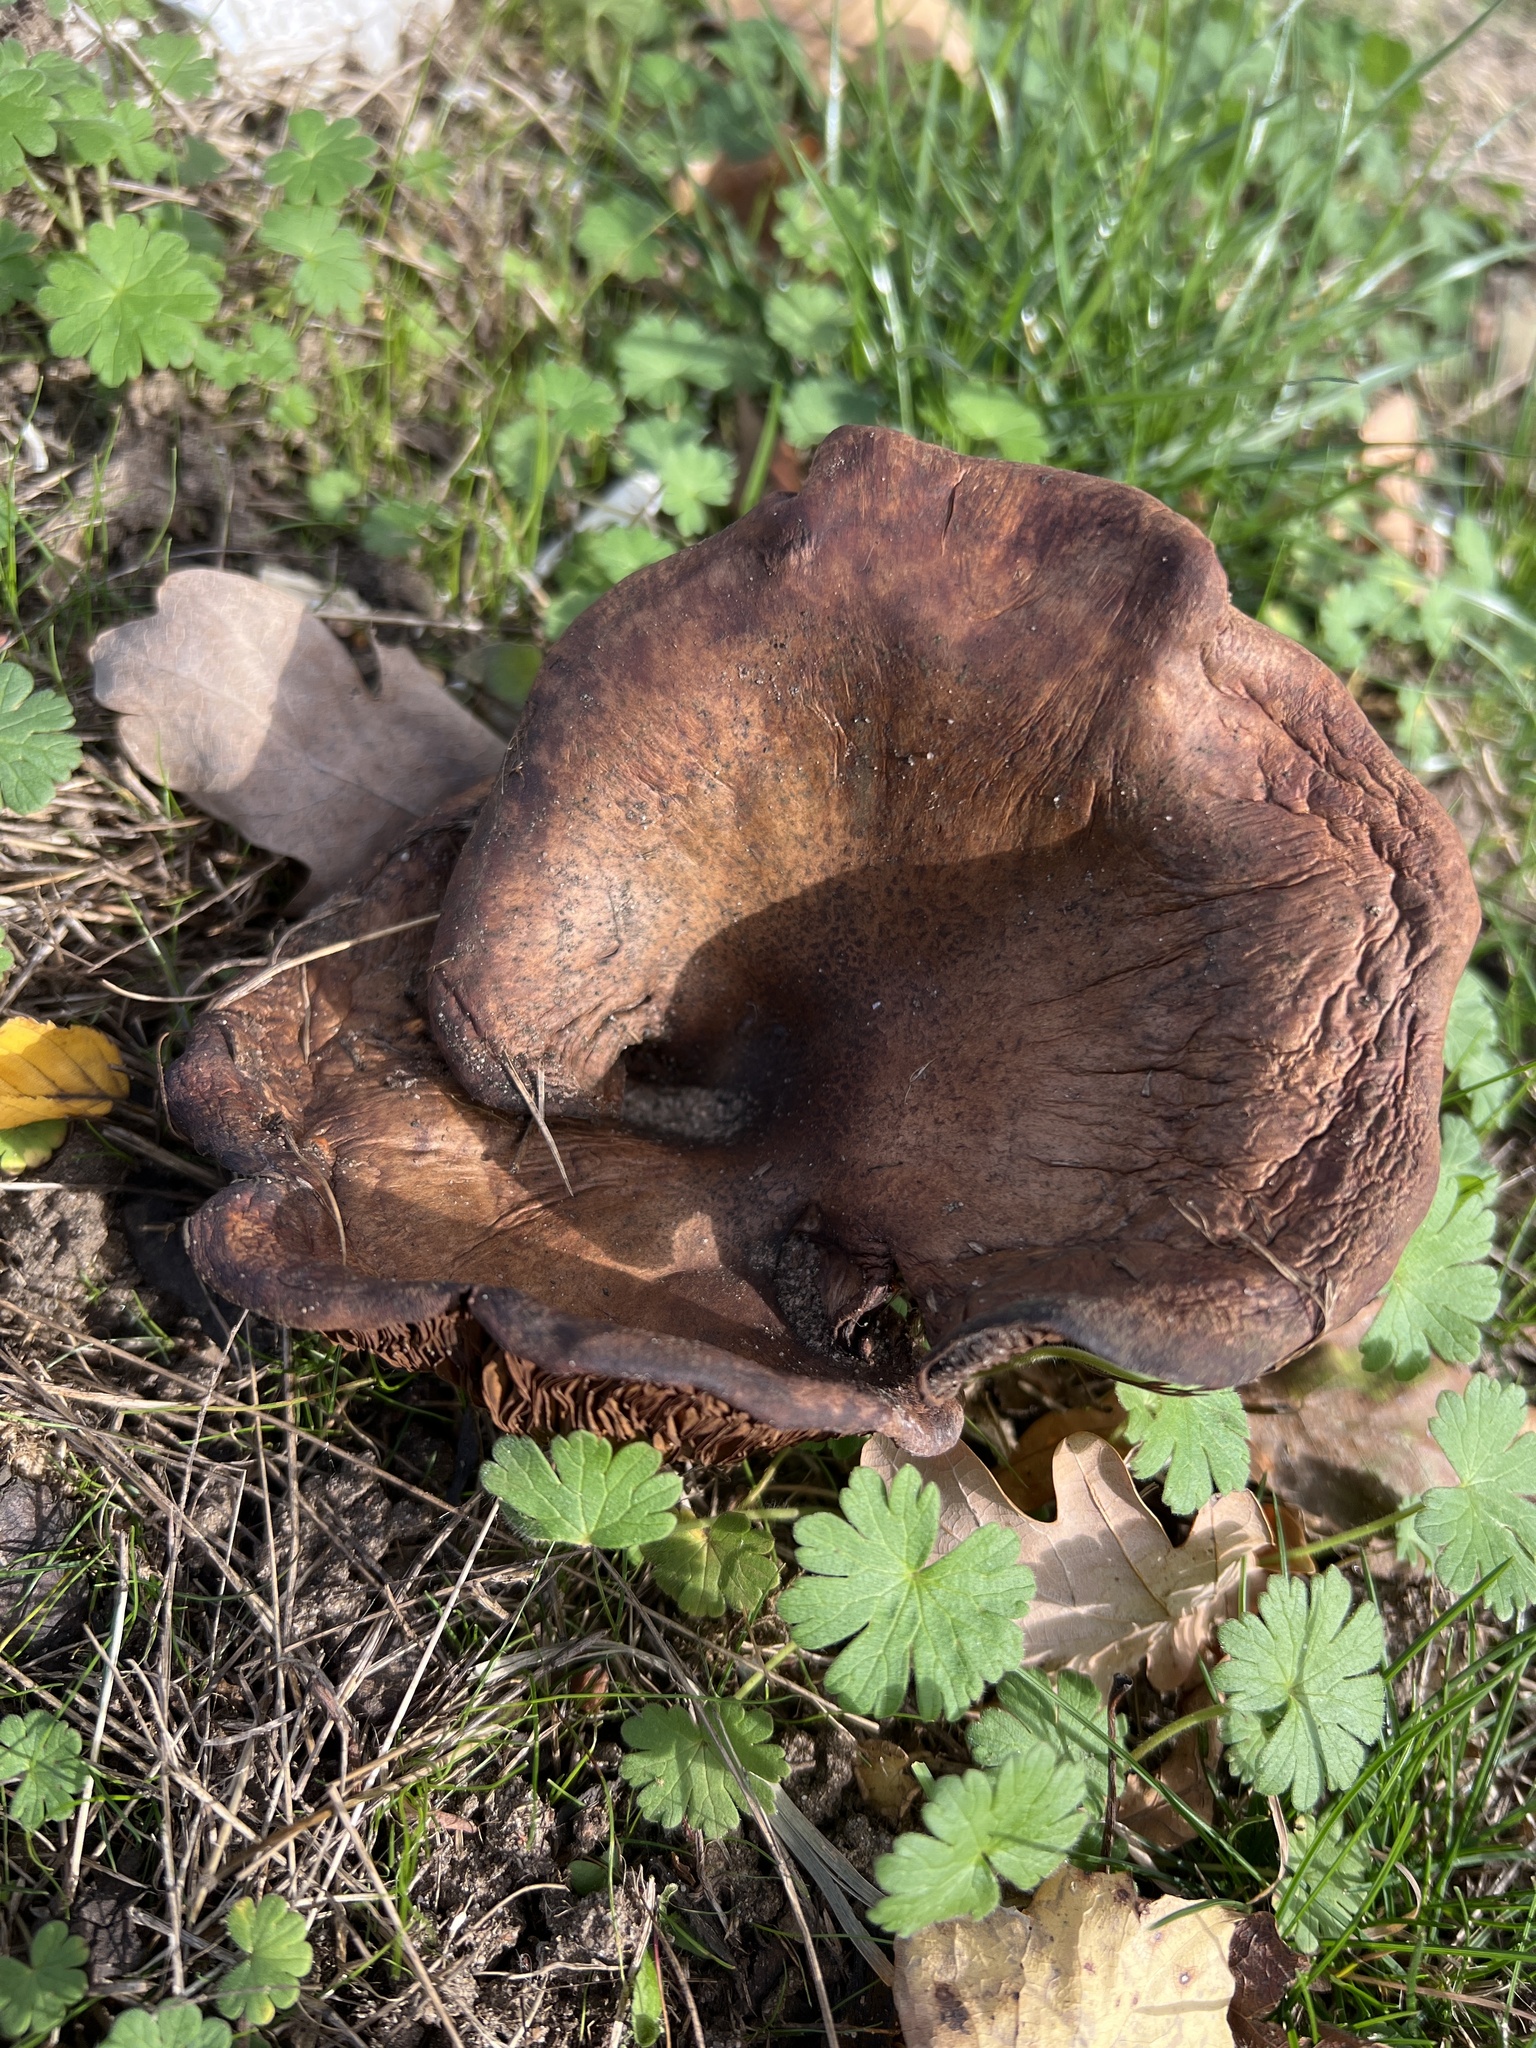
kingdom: Fungi
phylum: Basidiomycota
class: Agaricomycetes
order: Boletales
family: Paxillaceae
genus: Paxillus
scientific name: Paxillus involutus
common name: Brown roll rim
